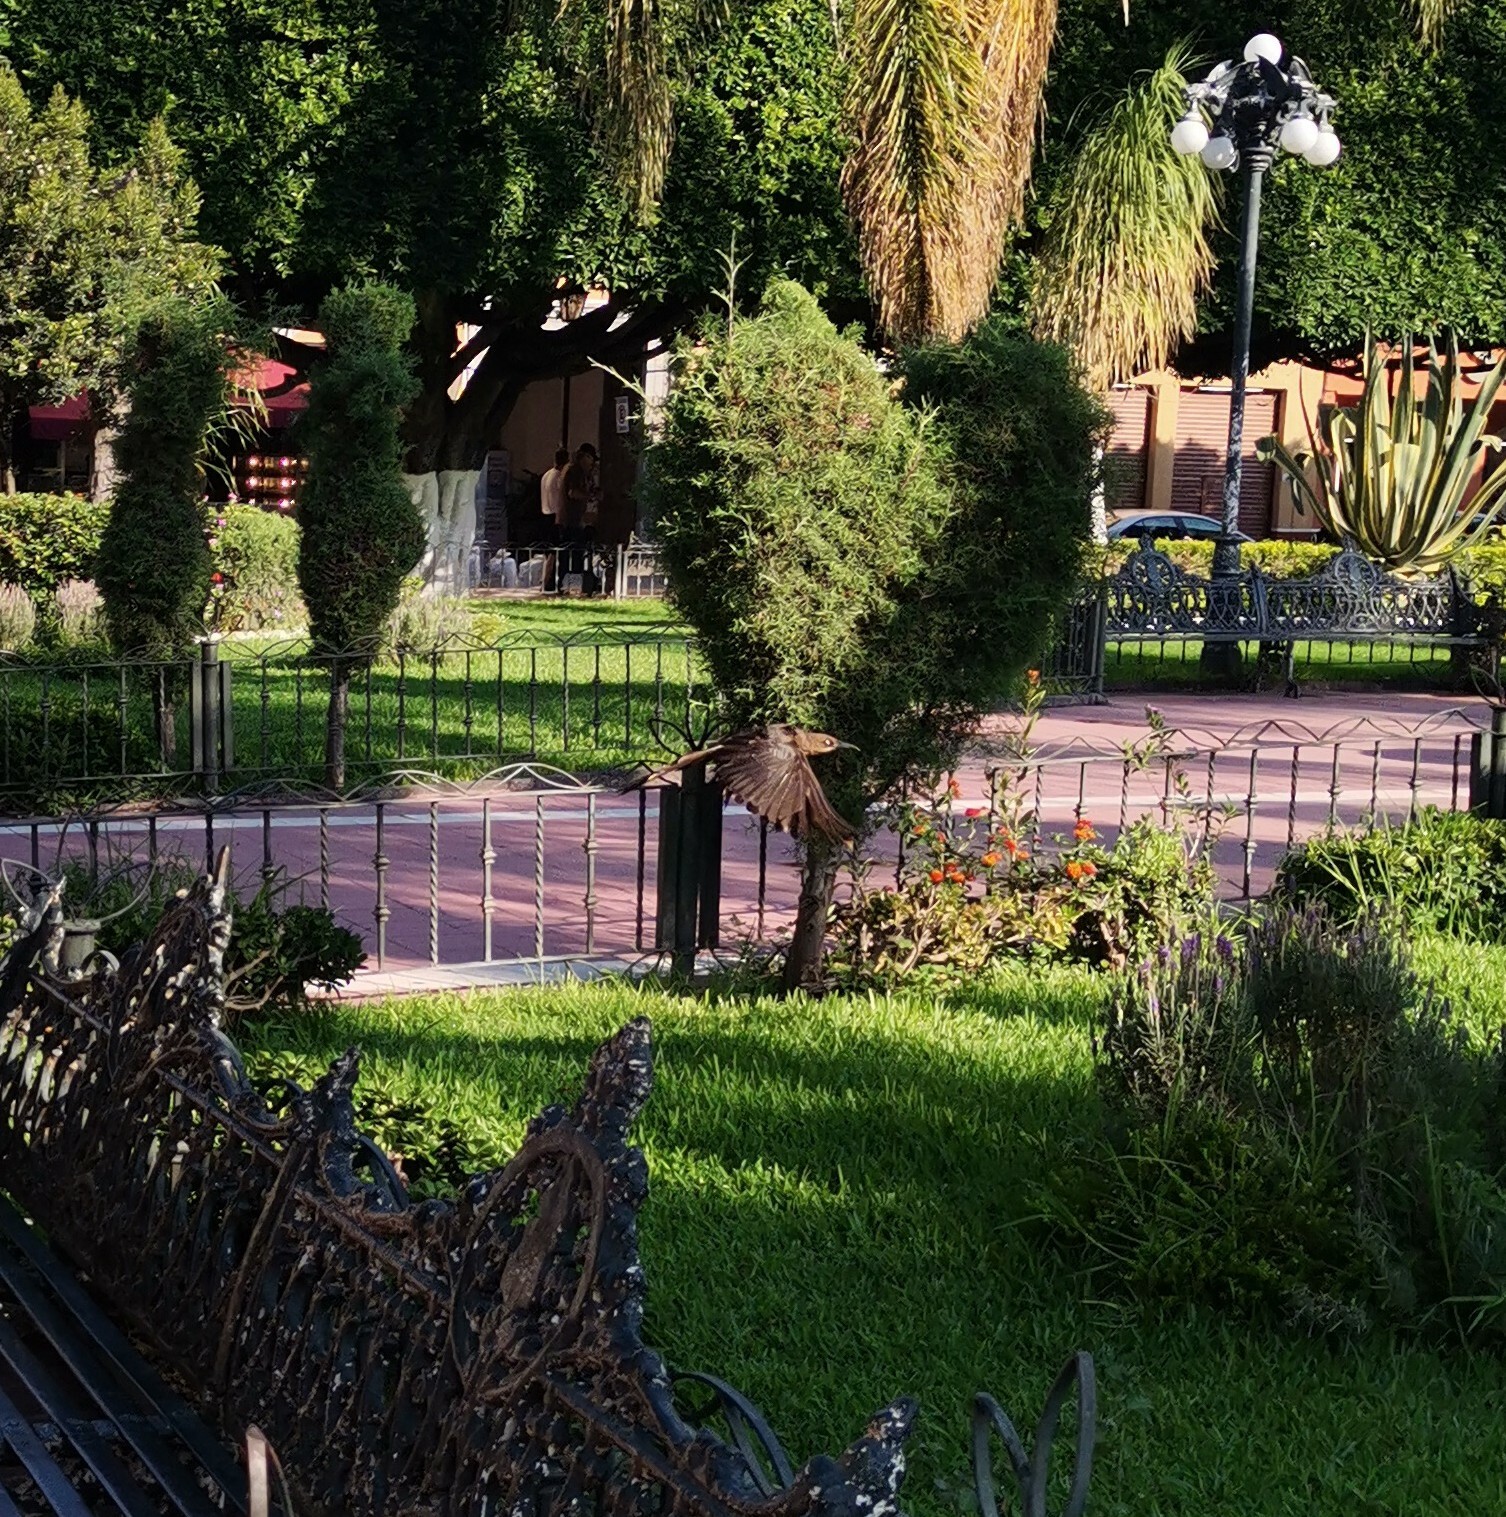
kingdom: Animalia
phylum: Chordata
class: Aves
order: Passeriformes
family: Icteridae
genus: Quiscalus
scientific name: Quiscalus mexicanus
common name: Great-tailed grackle
